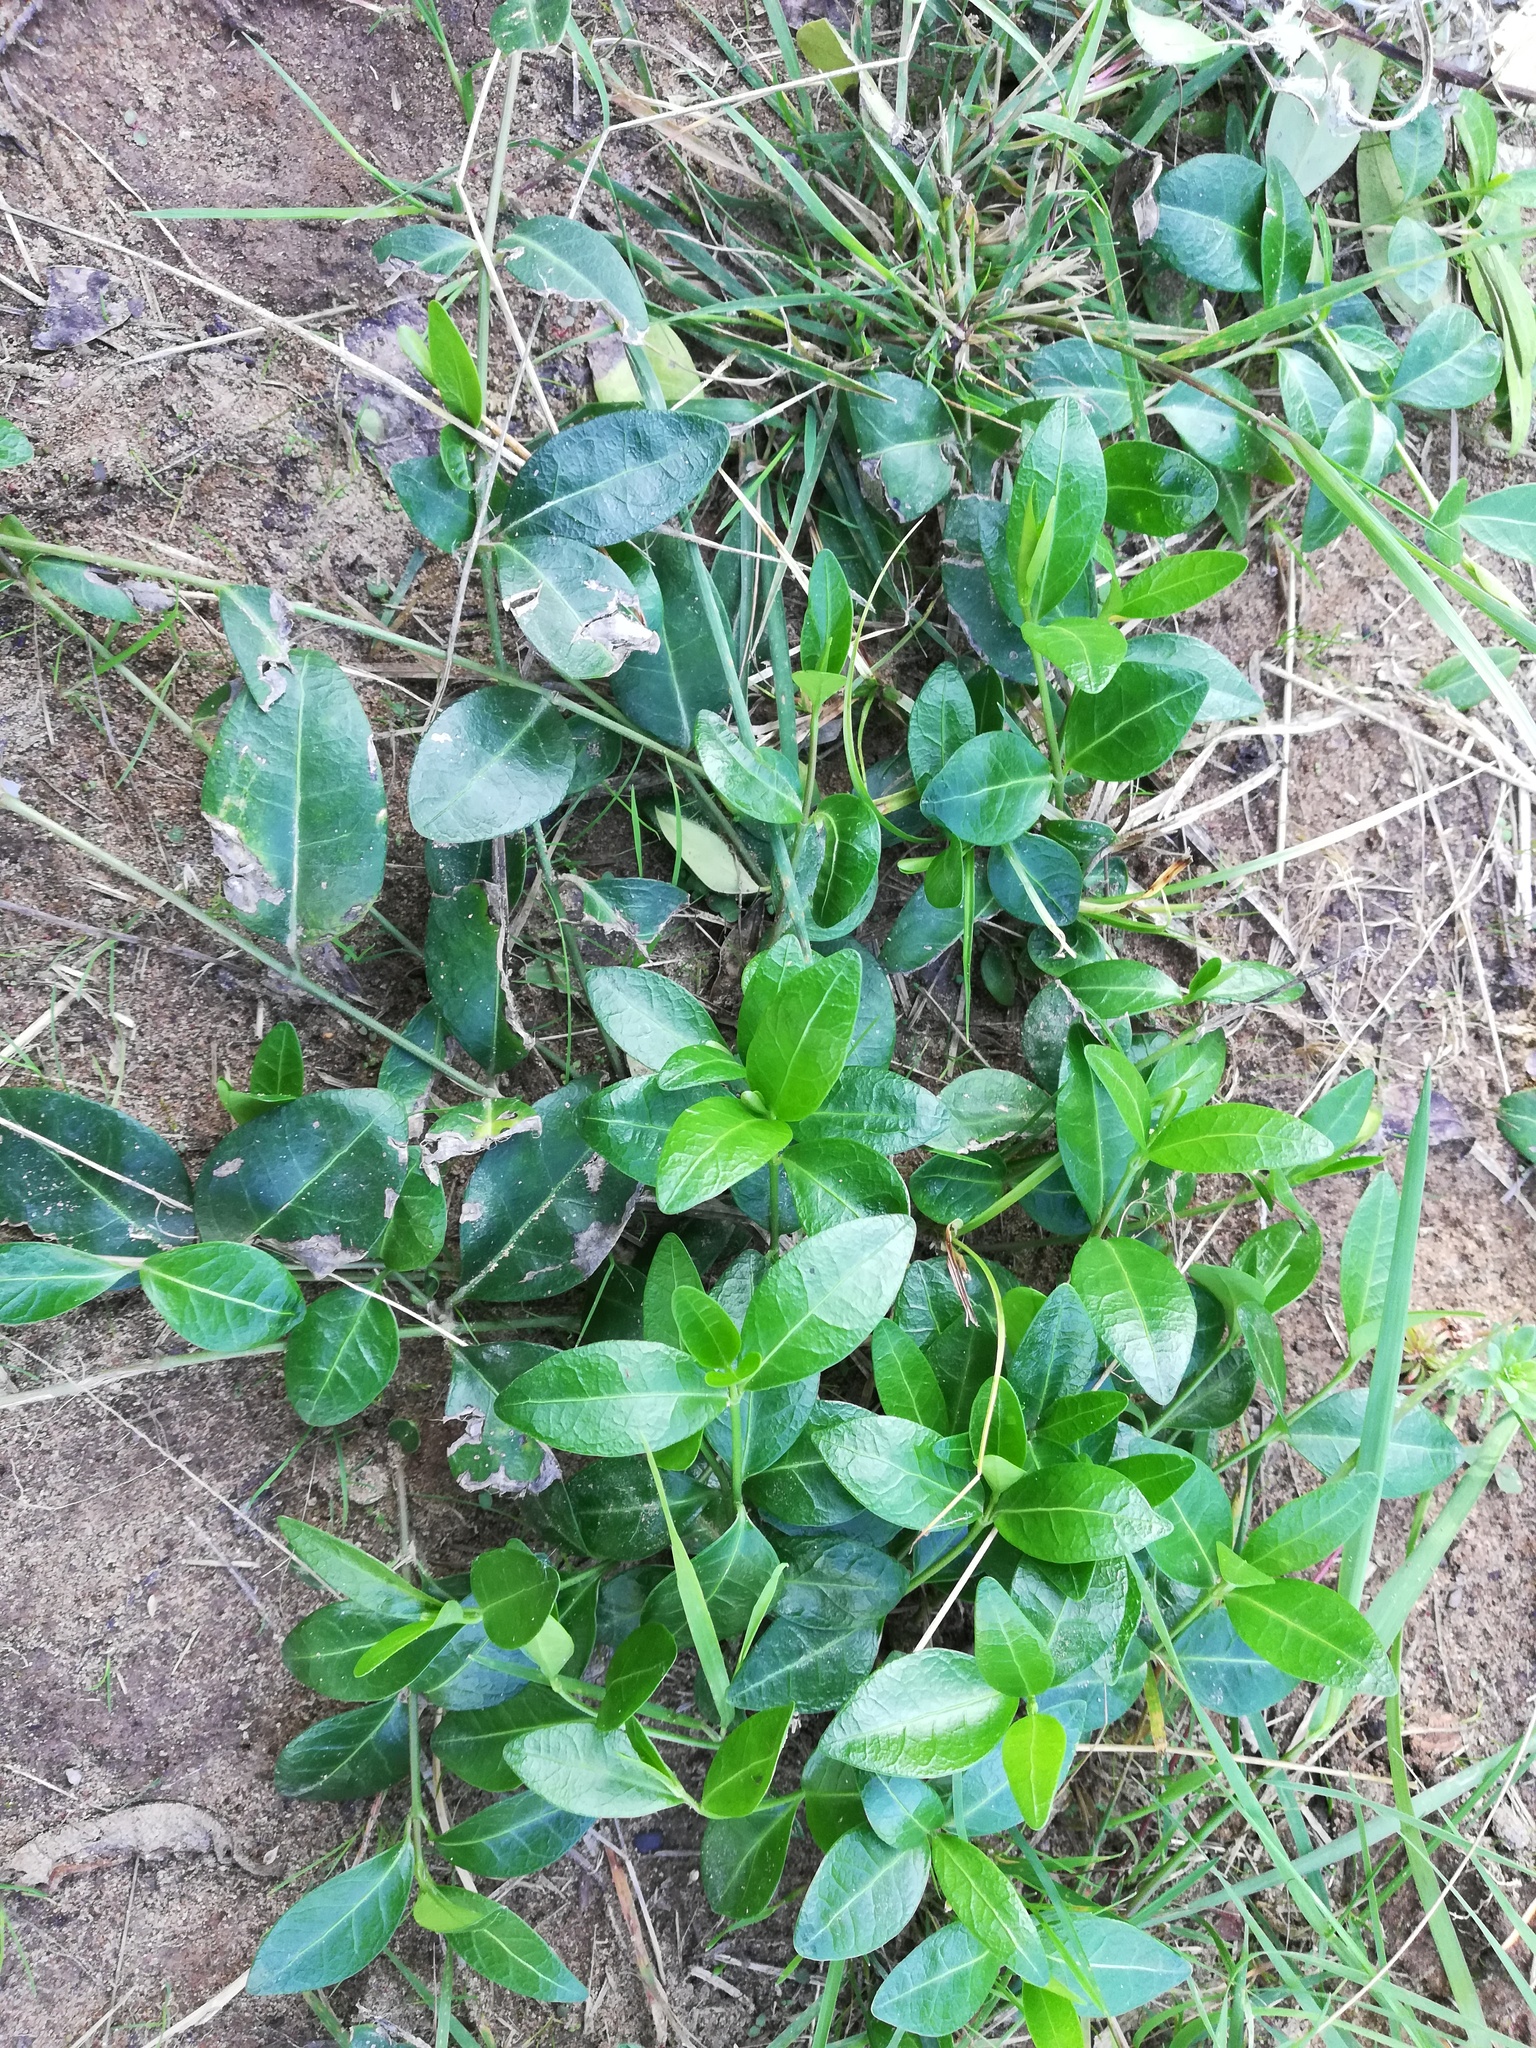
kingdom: Plantae
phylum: Tracheophyta
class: Magnoliopsida
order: Gentianales
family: Apocynaceae
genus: Vinca
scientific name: Vinca minor
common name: Lesser periwinkle
